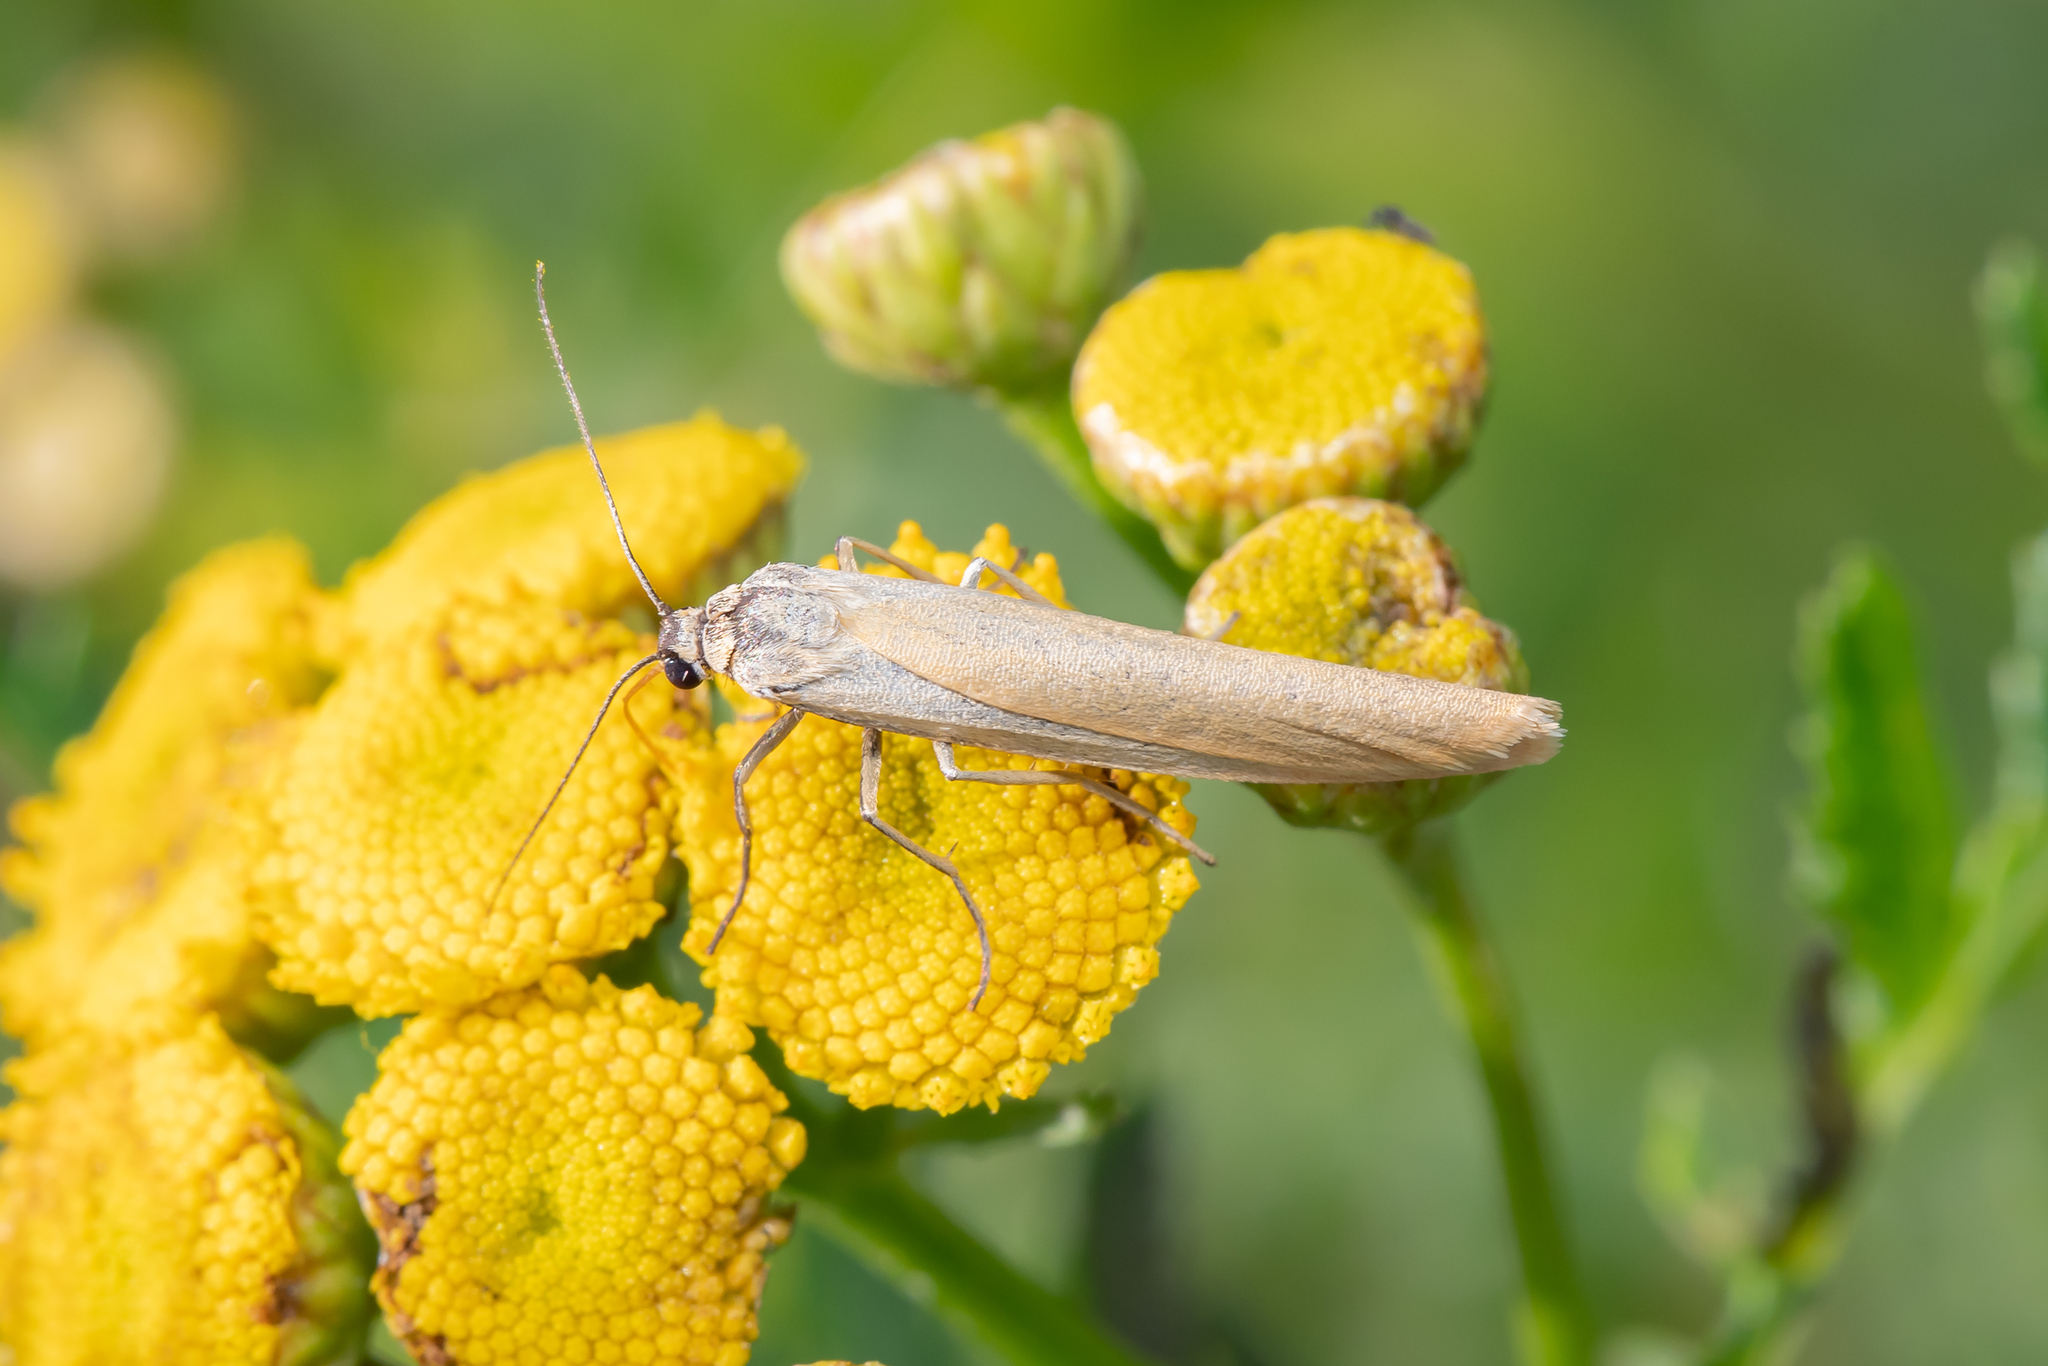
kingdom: Animalia
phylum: Arthropoda
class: Insecta
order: Lepidoptera
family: Erebidae
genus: Indalia
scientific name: Indalia lutarella
